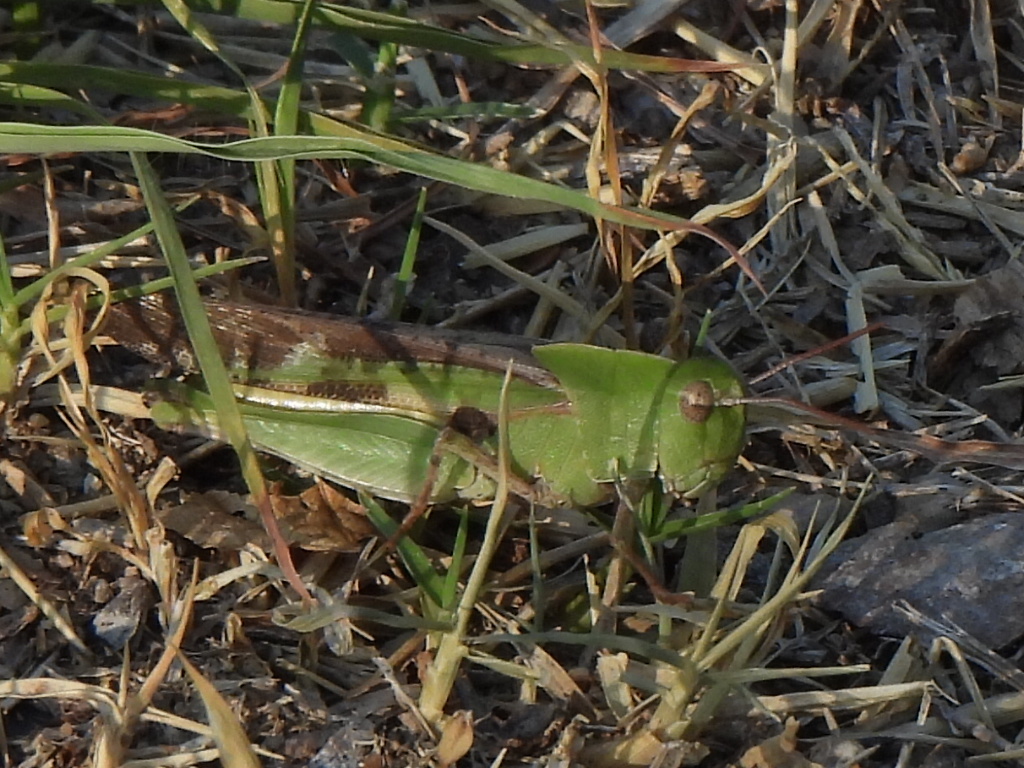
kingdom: Animalia
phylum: Arthropoda
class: Insecta
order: Orthoptera
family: Acrididae
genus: Chortophaga
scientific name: Chortophaga viridifasciata
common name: Green-striped grasshopper
